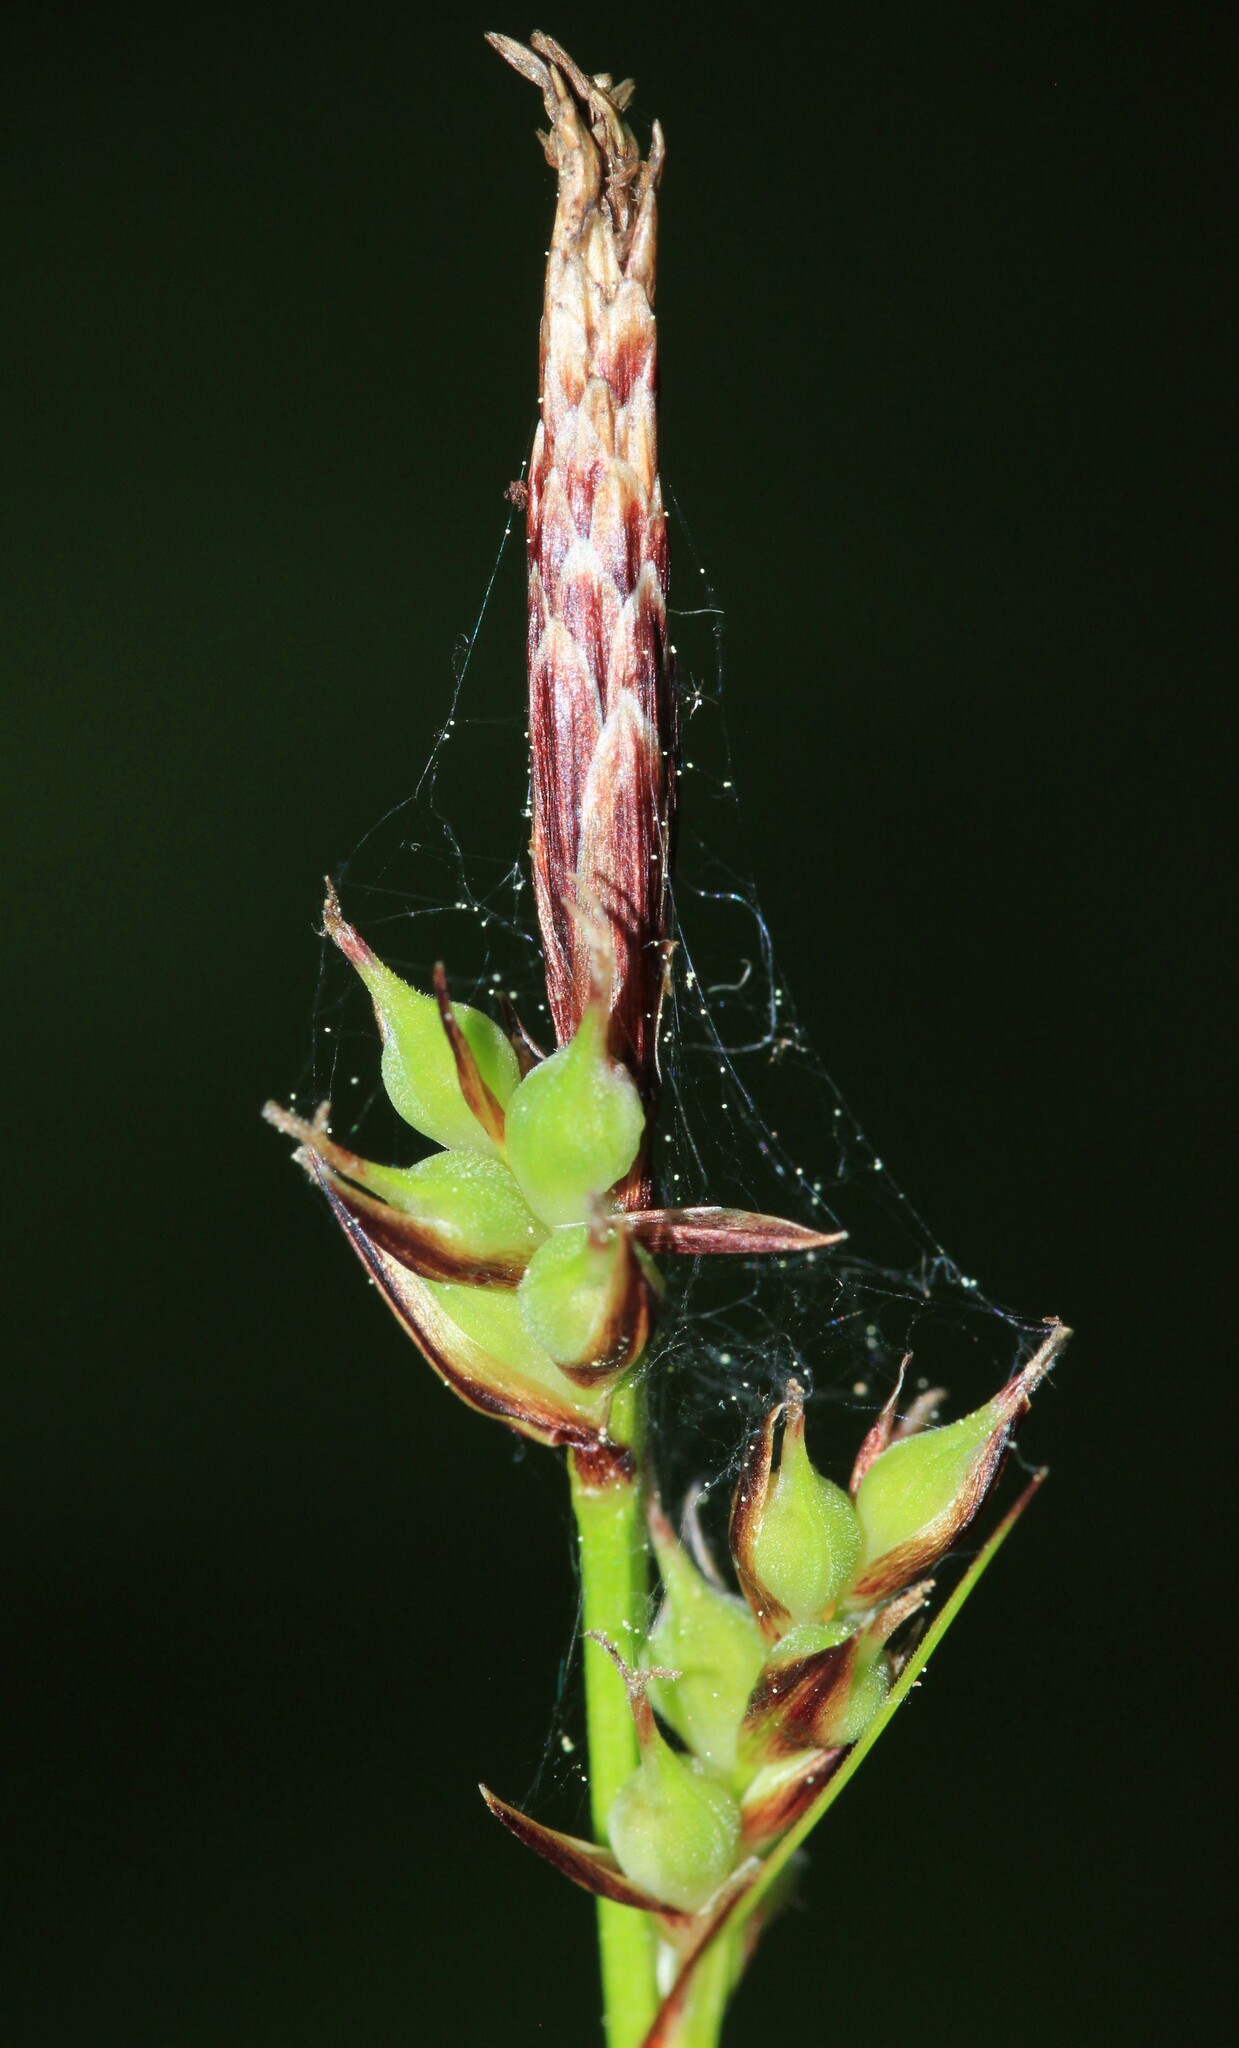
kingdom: Plantae
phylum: Tracheophyta
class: Liliopsida
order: Poales
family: Cyperaceae
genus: Carex
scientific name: Carex lucorum
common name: Blue ridge sedge
